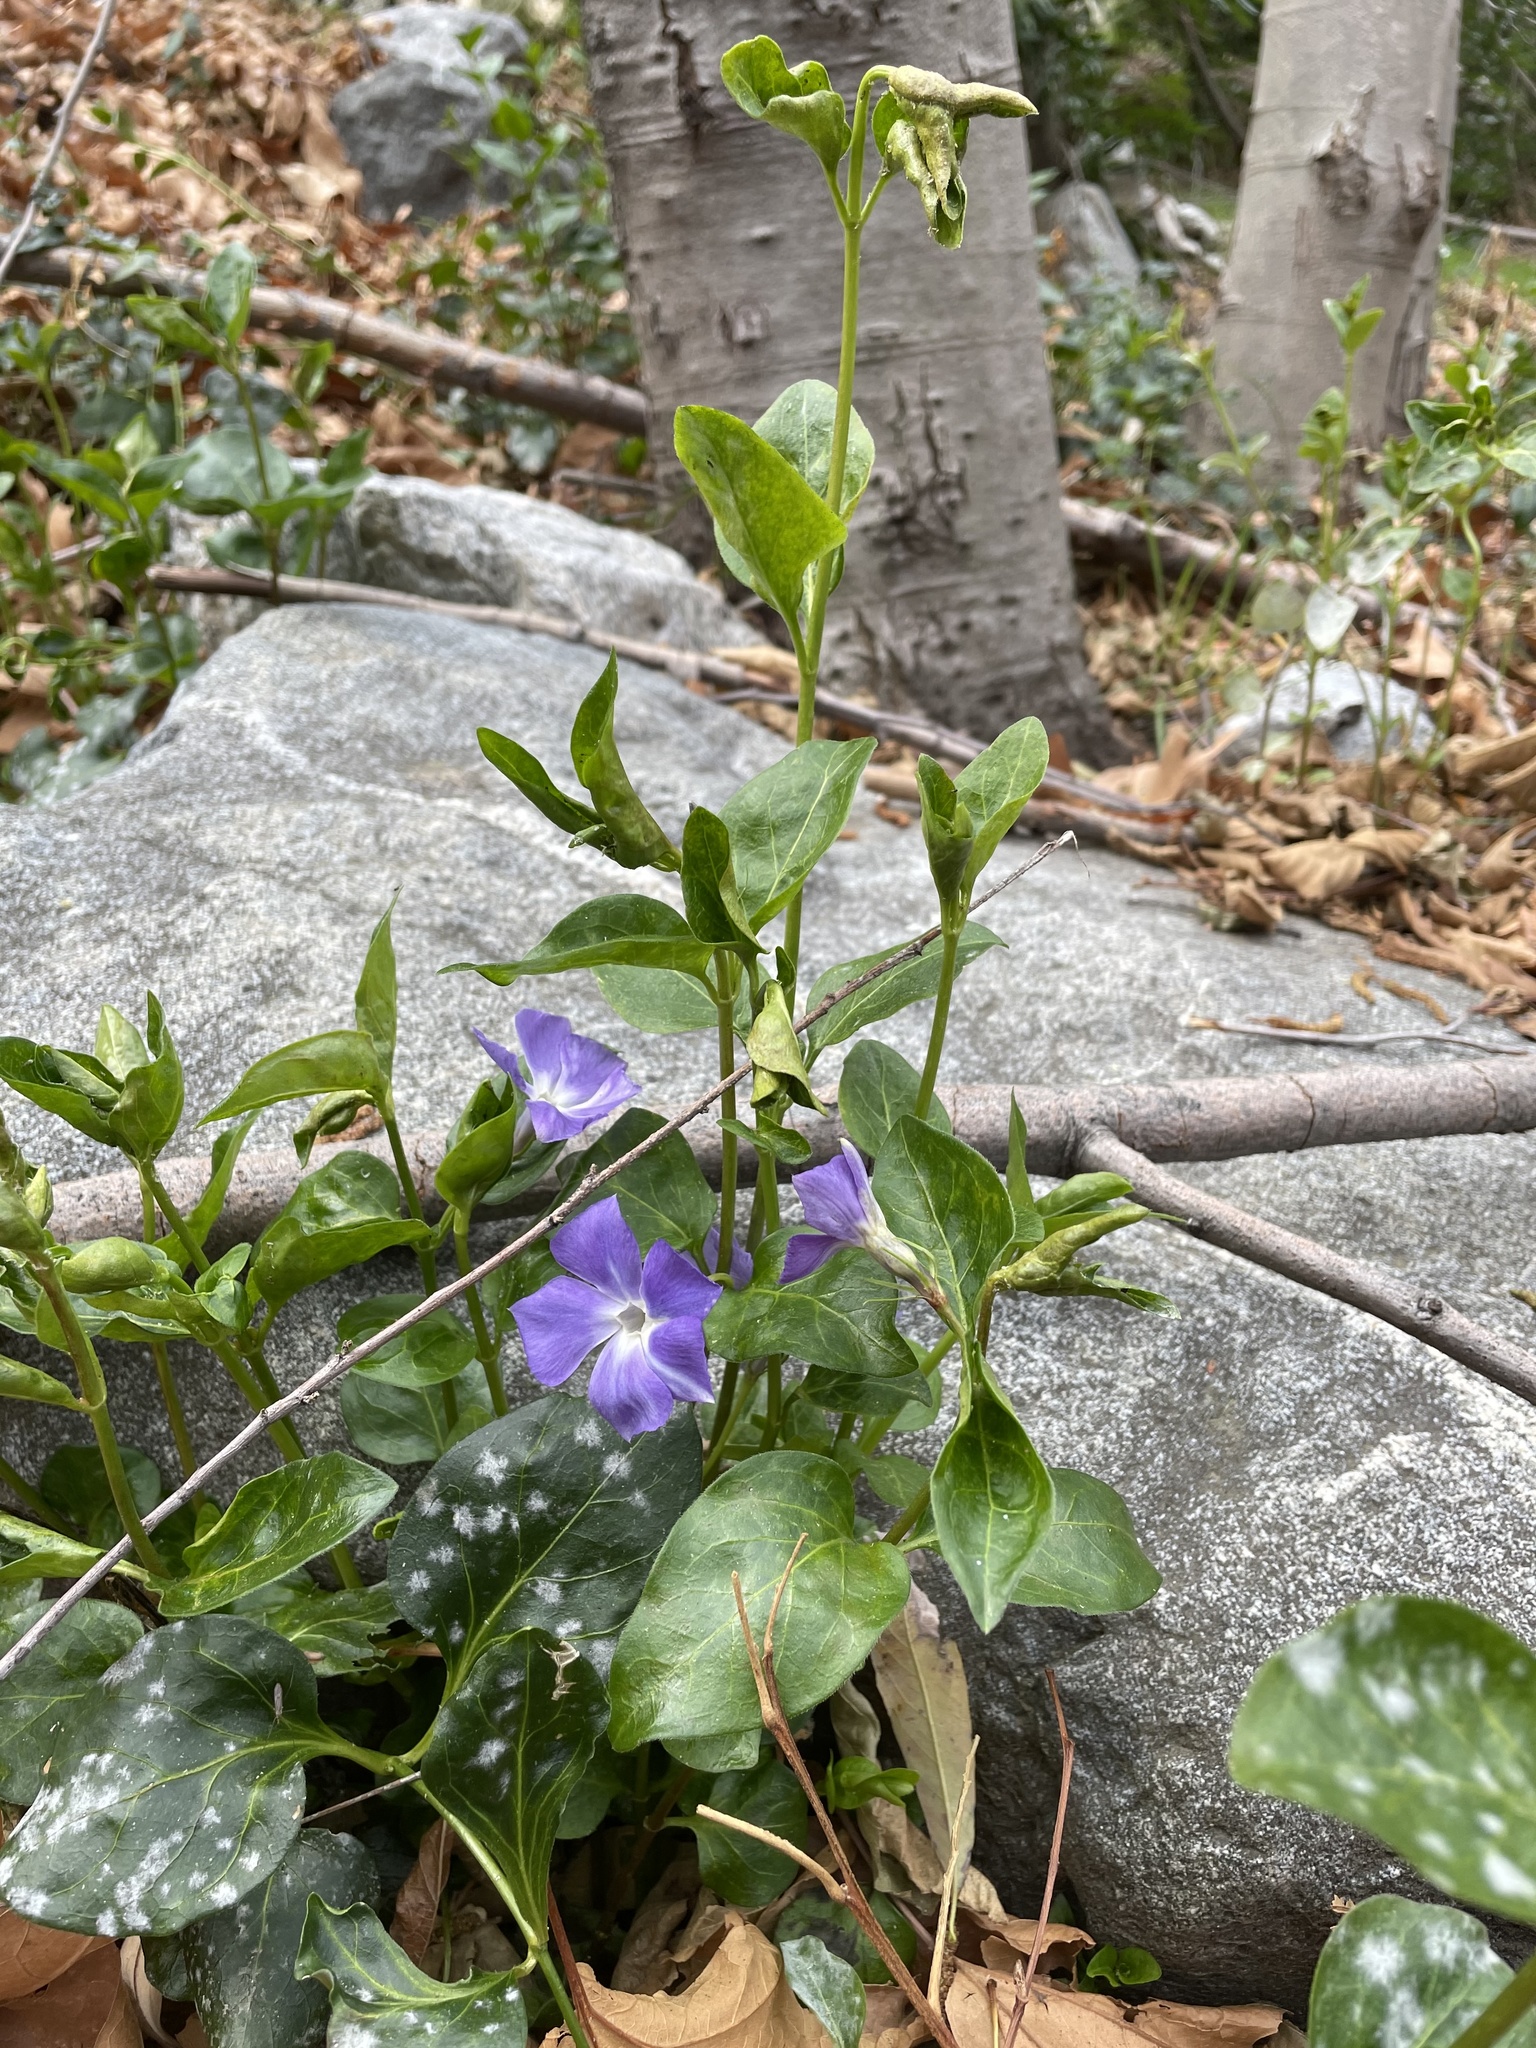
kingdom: Plantae
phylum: Tracheophyta
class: Magnoliopsida
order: Gentianales
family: Apocynaceae
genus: Vinca
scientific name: Vinca major
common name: Greater periwinkle
